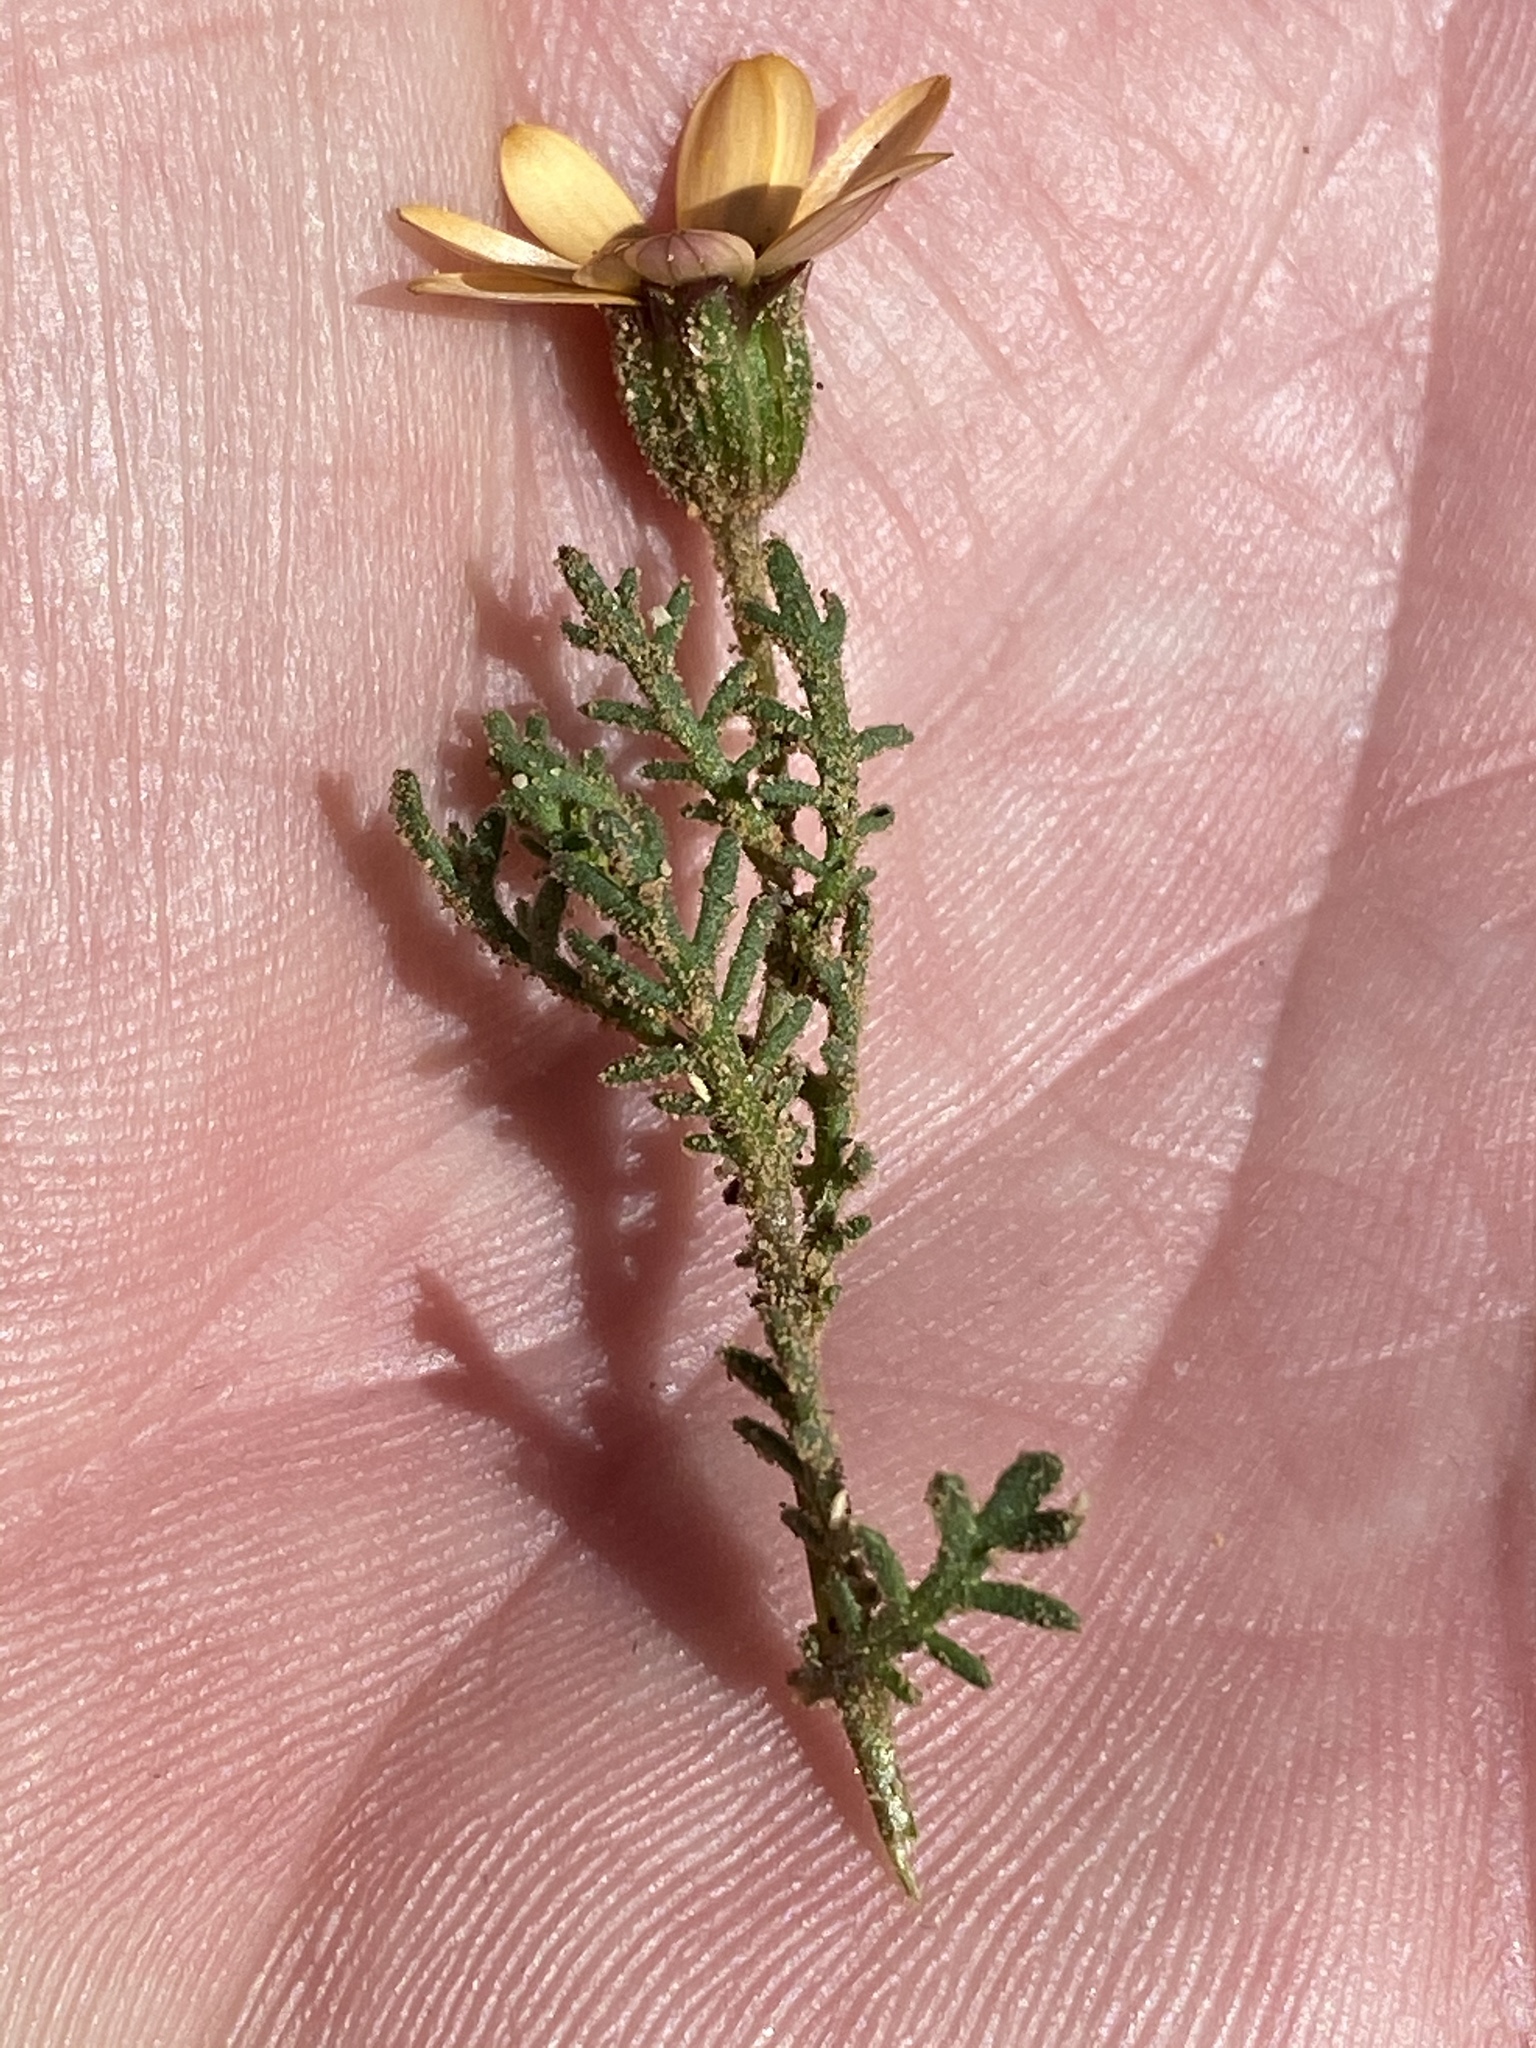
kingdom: Plantae
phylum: Tracheophyta
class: Magnoliopsida
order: Asterales
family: Asteraceae
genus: Dimorphotheca
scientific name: Dimorphotheca pinnata
